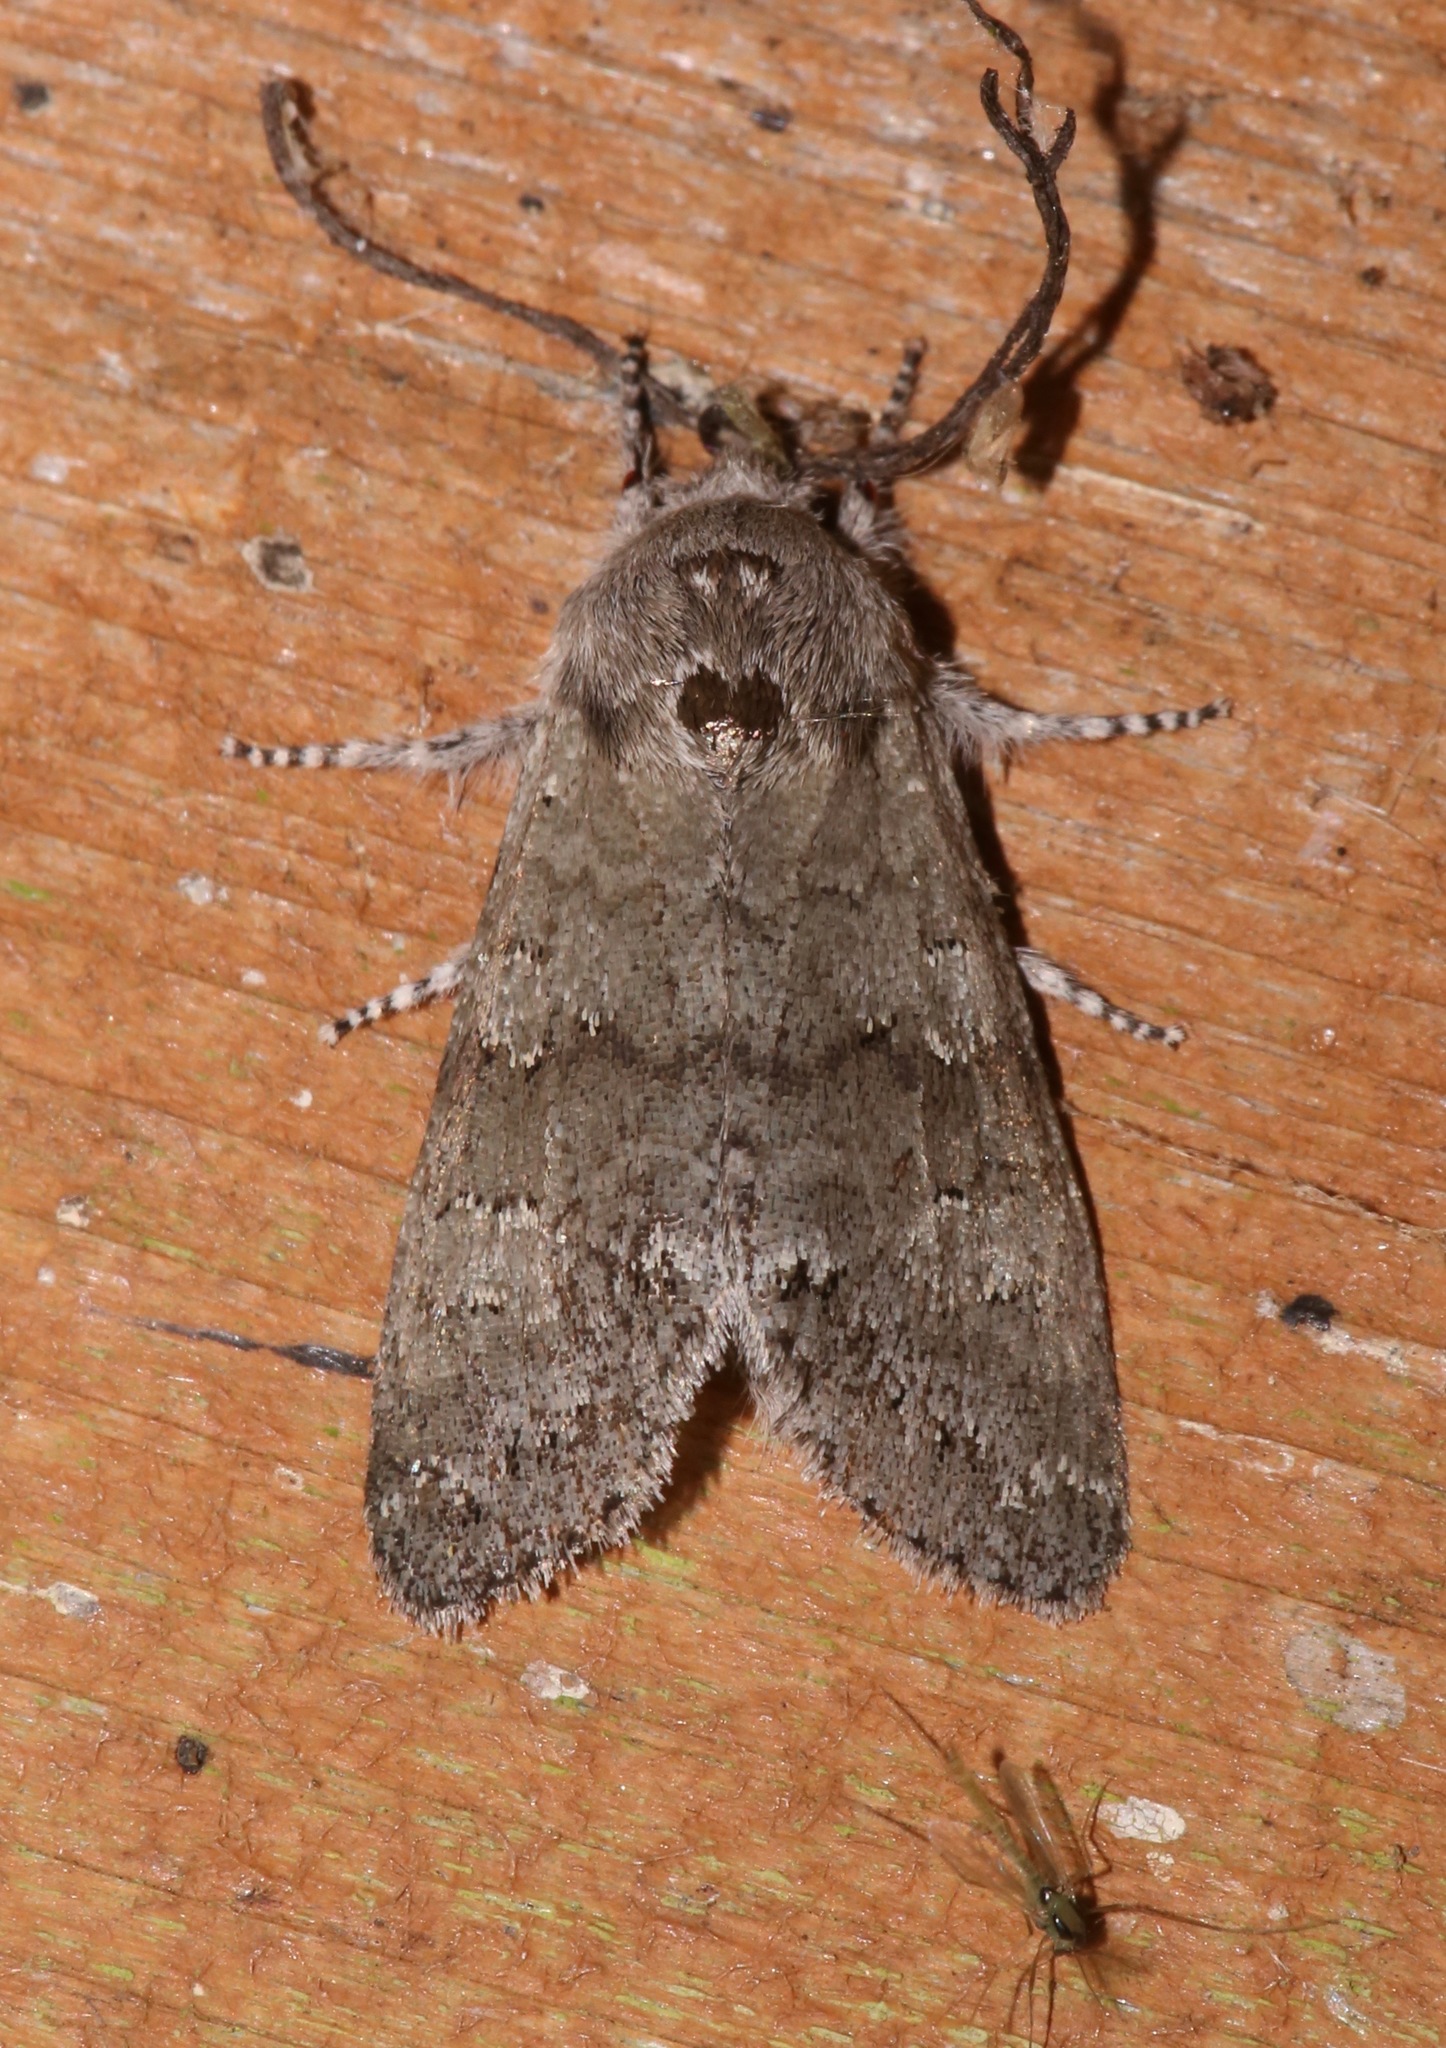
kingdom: Animalia
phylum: Arthropoda
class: Insecta
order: Lepidoptera
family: Noctuidae
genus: Psaphida
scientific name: Psaphida rolandi
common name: Roland's sallow
